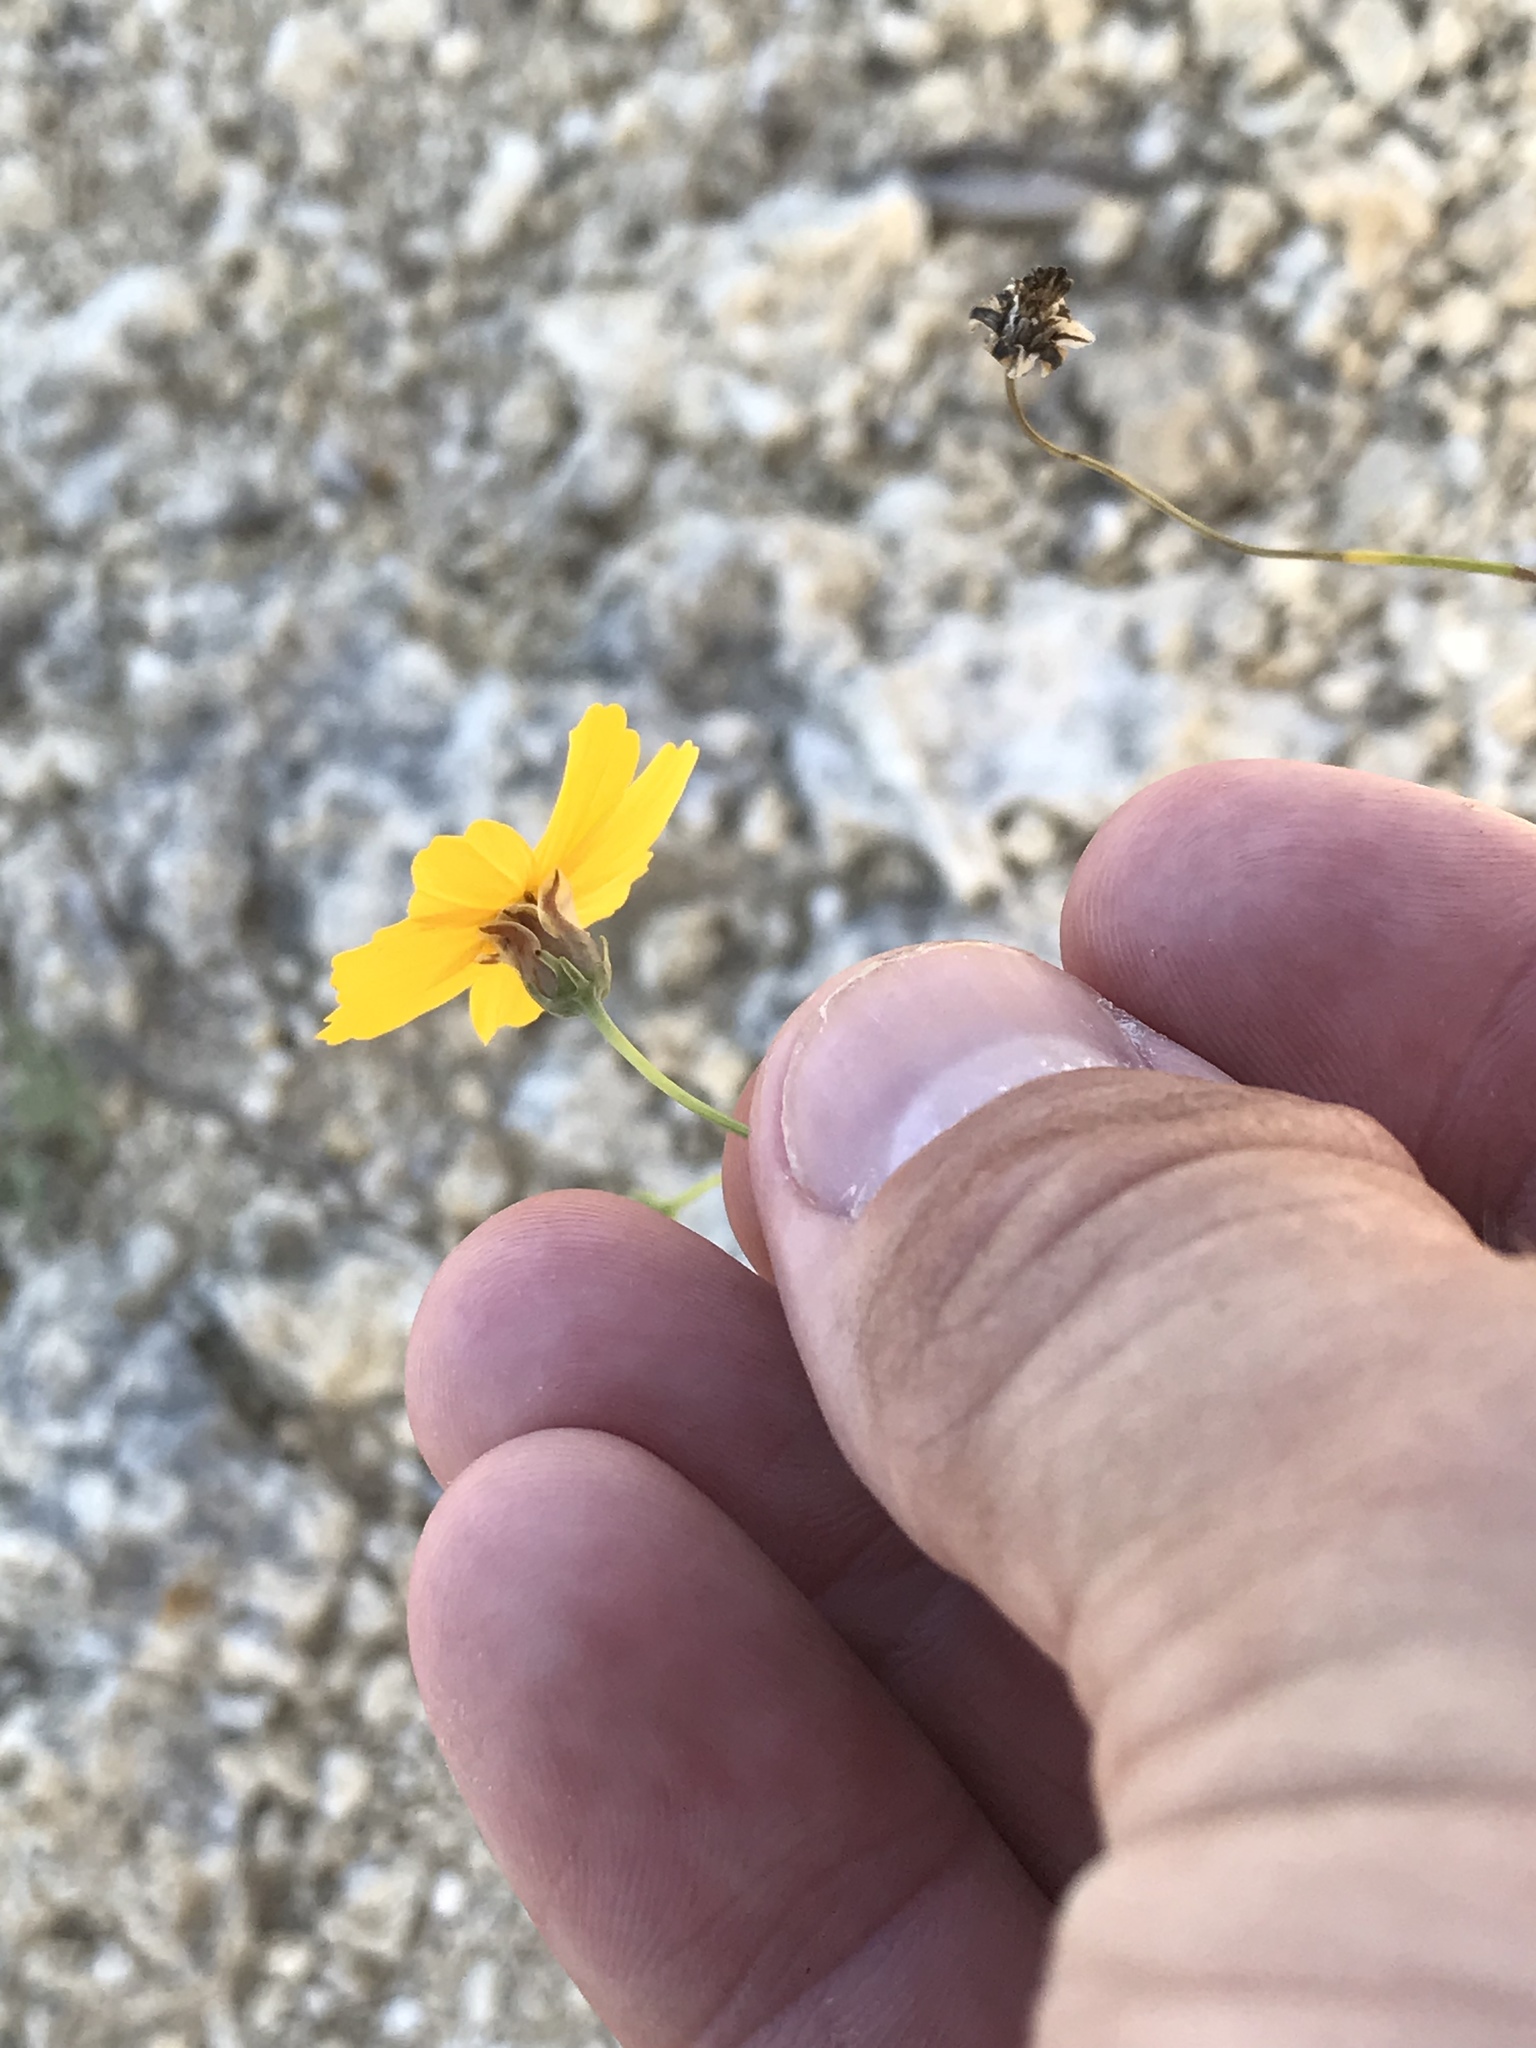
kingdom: Plantae
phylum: Tracheophyta
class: Magnoliopsida
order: Asterales
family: Asteraceae
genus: Thelesperma
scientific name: Thelesperma simplicifolium
